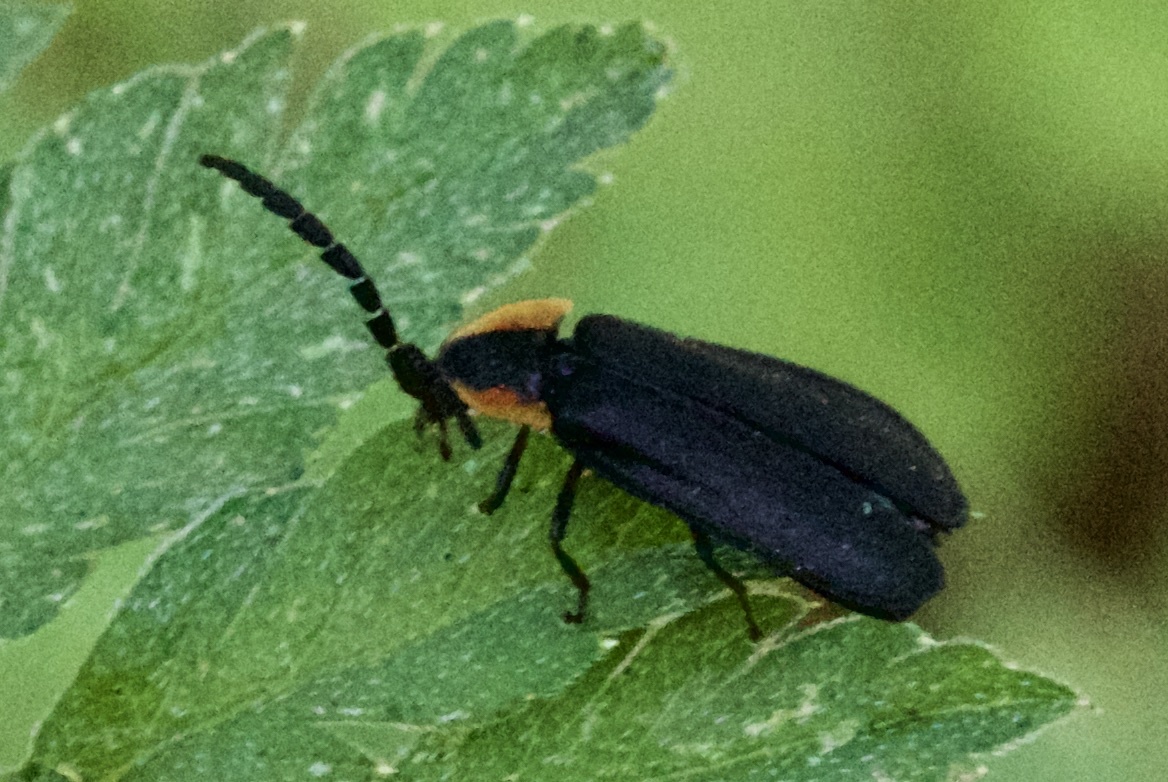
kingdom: Animalia
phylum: Arthropoda
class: Insecta
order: Coleoptera
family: Lampyridae
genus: Lucidota
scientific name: Lucidota atra
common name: Black firefly
